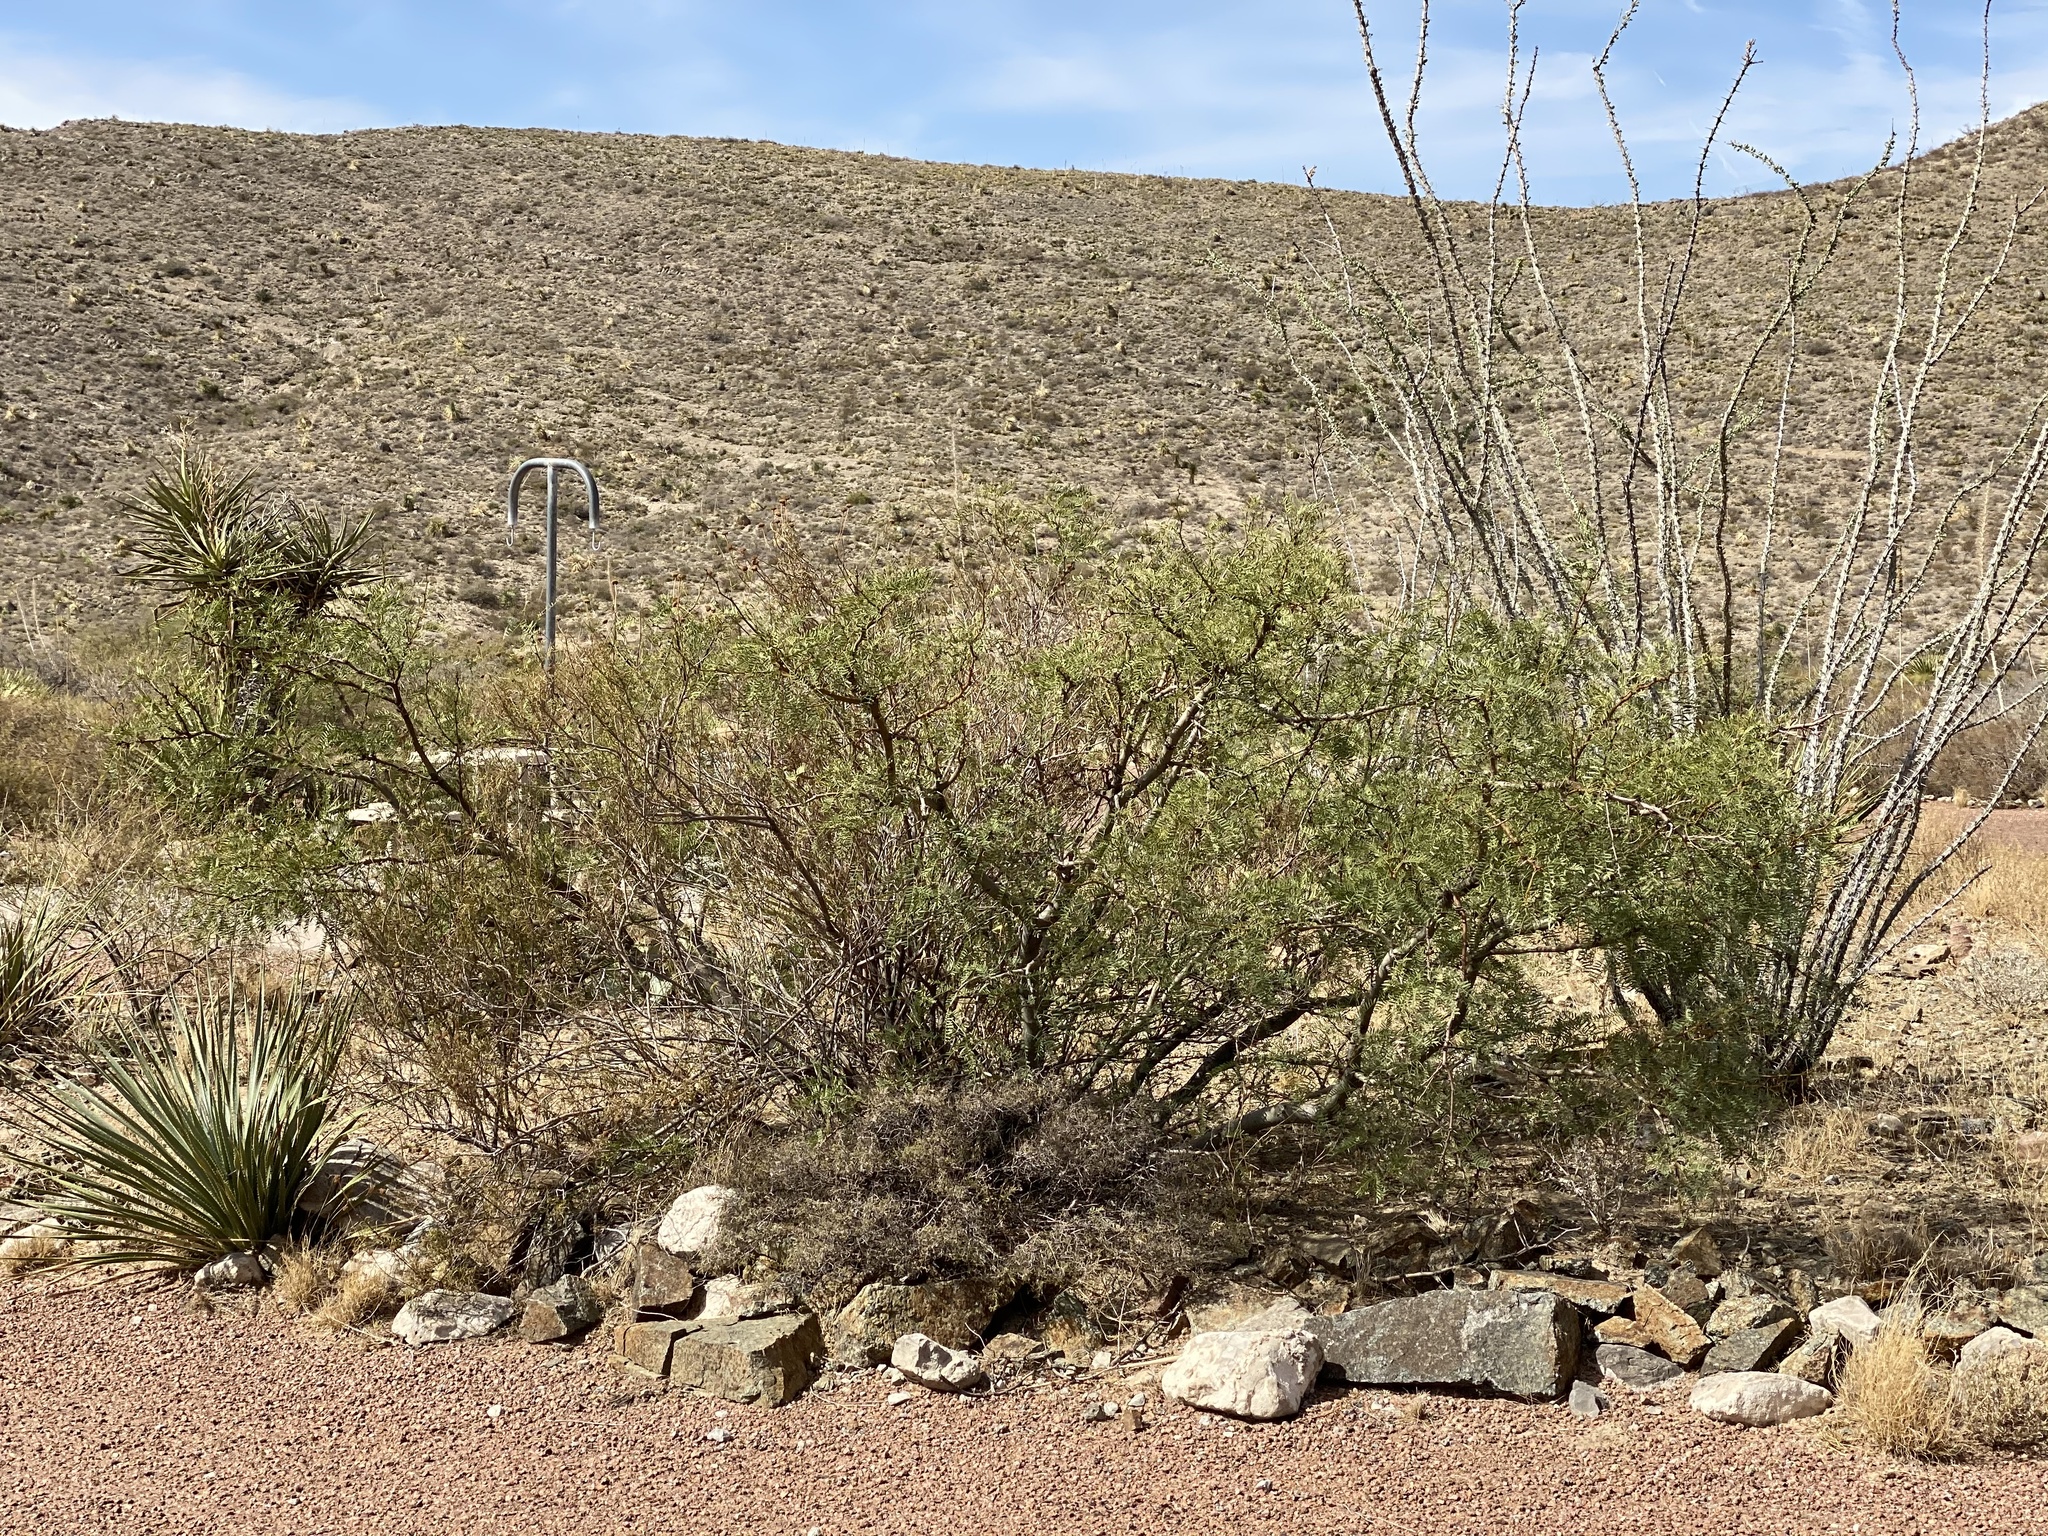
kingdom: Plantae
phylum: Tracheophyta
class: Magnoliopsida
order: Fabales
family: Fabaceae
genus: Prosopis
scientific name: Prosopis glandulosa
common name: Honey mesquite
